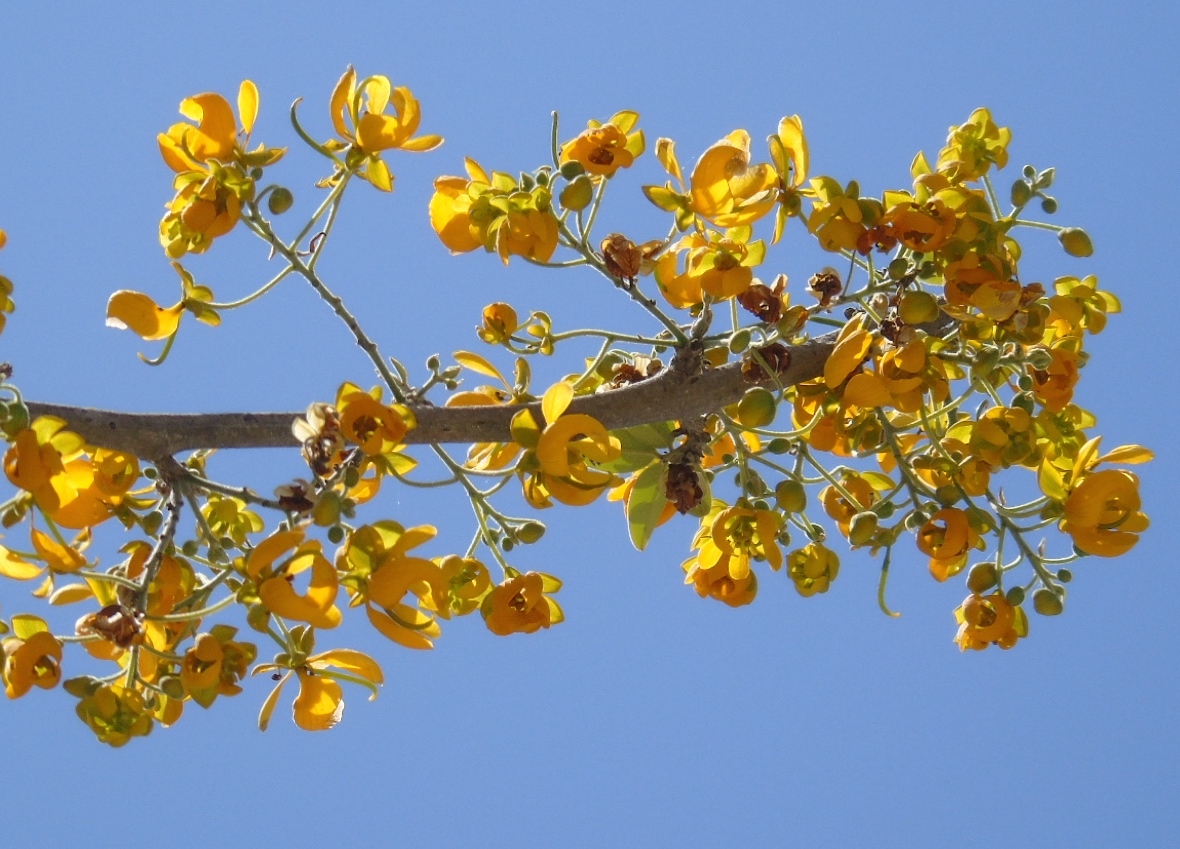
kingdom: Plantae
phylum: Tracheophyta
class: Magnoliopsida
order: Fabales
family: Fabaceae
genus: Senna
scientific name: Senna atomaria
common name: Flor de san jose
